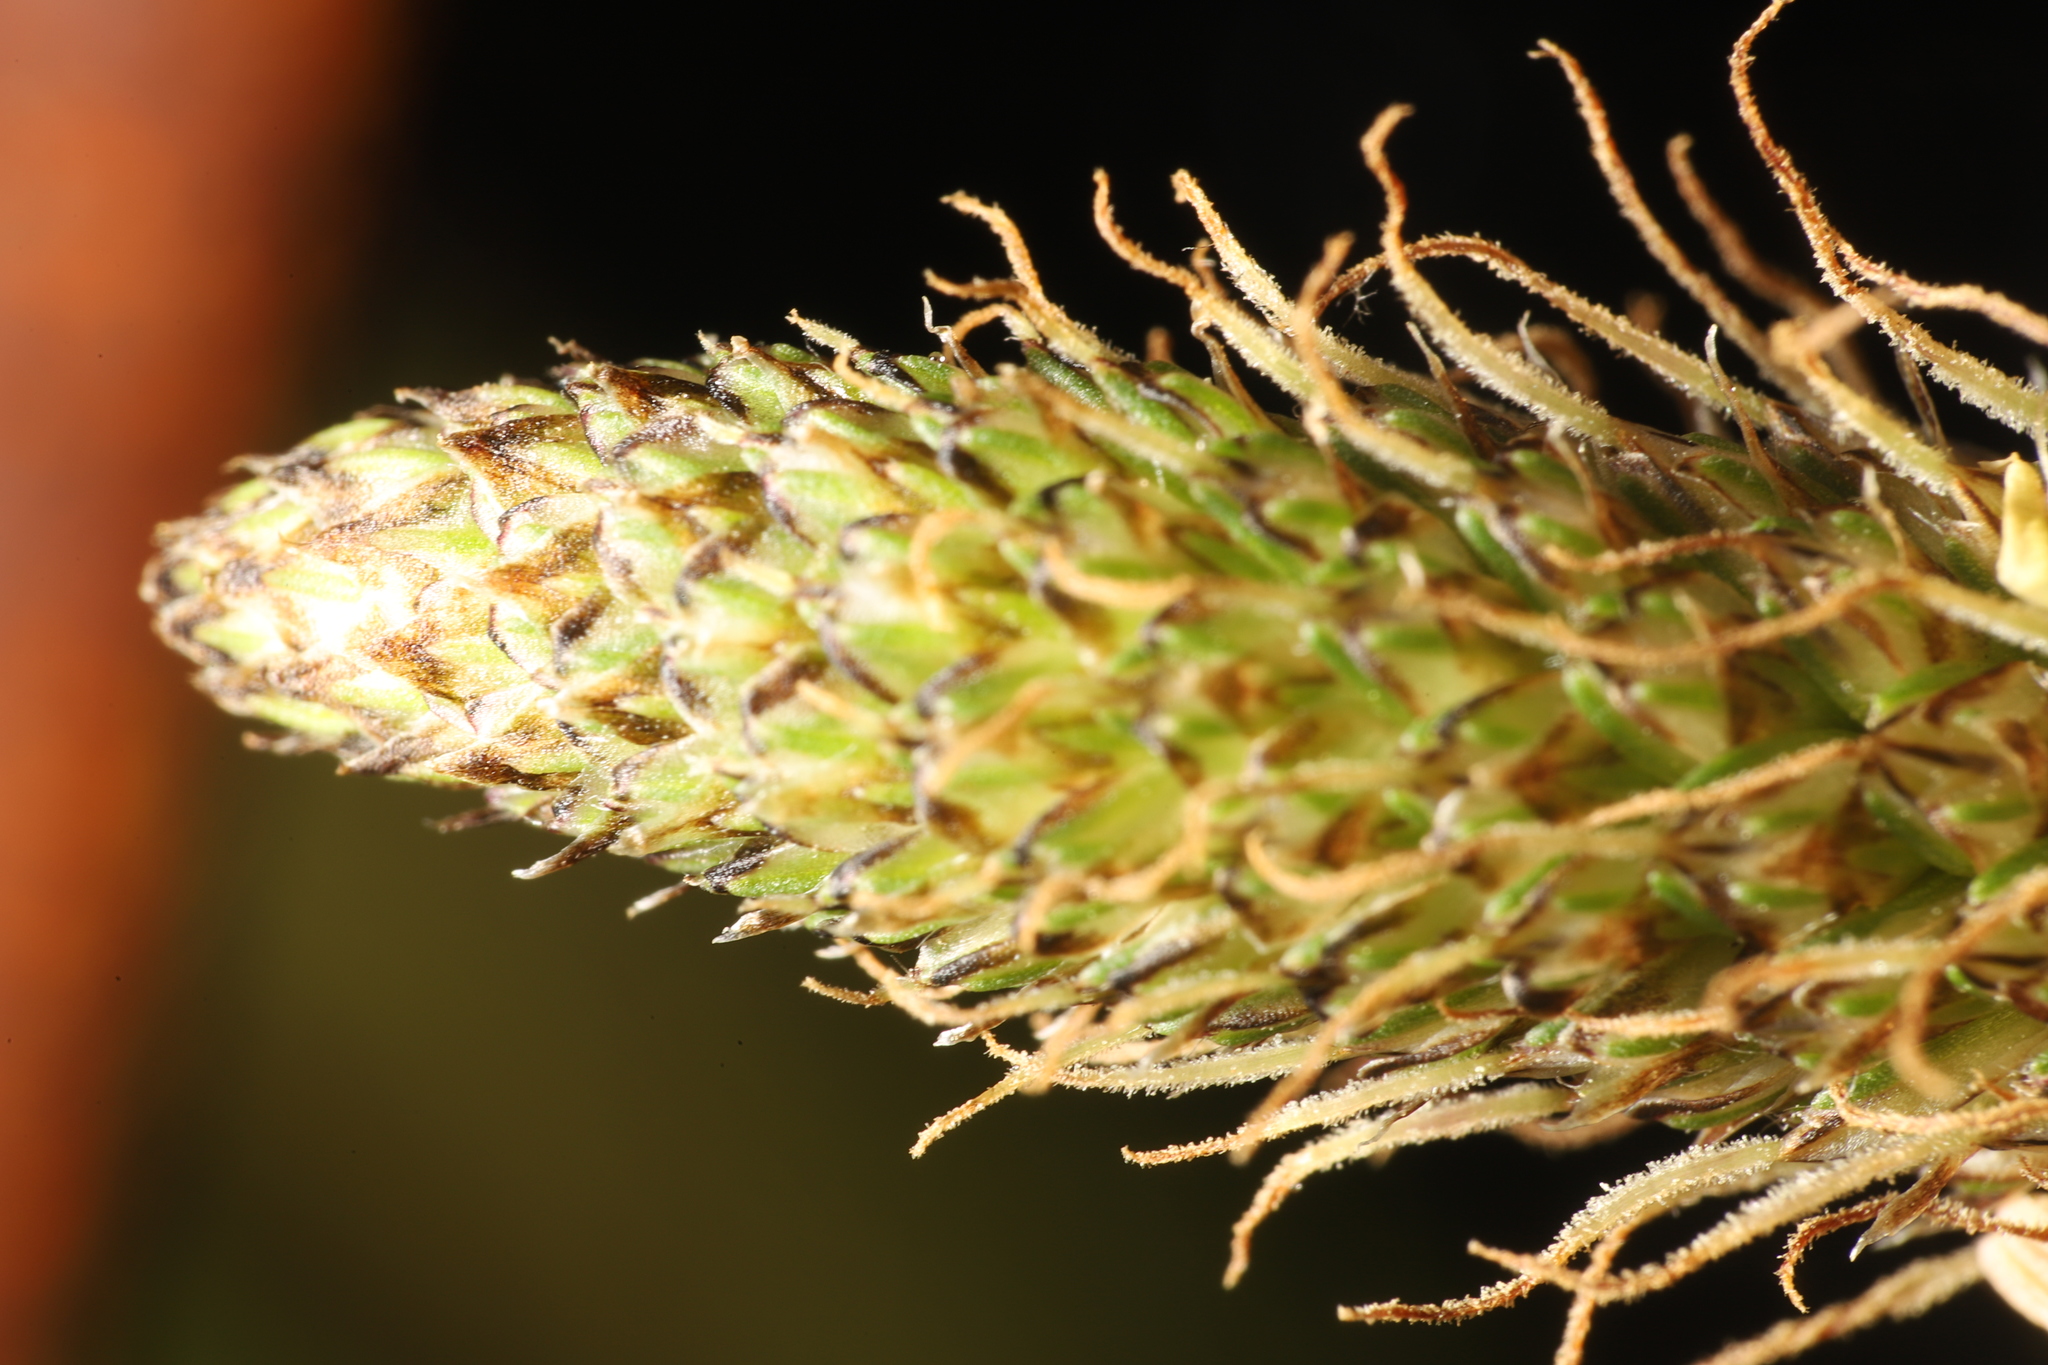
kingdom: Plantae
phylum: Tracheophyta
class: Magnoliopsida
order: Lamiales
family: Plantaginaceae
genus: Plantago
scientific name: Plantago lanceolata
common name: Ribwort plantain
